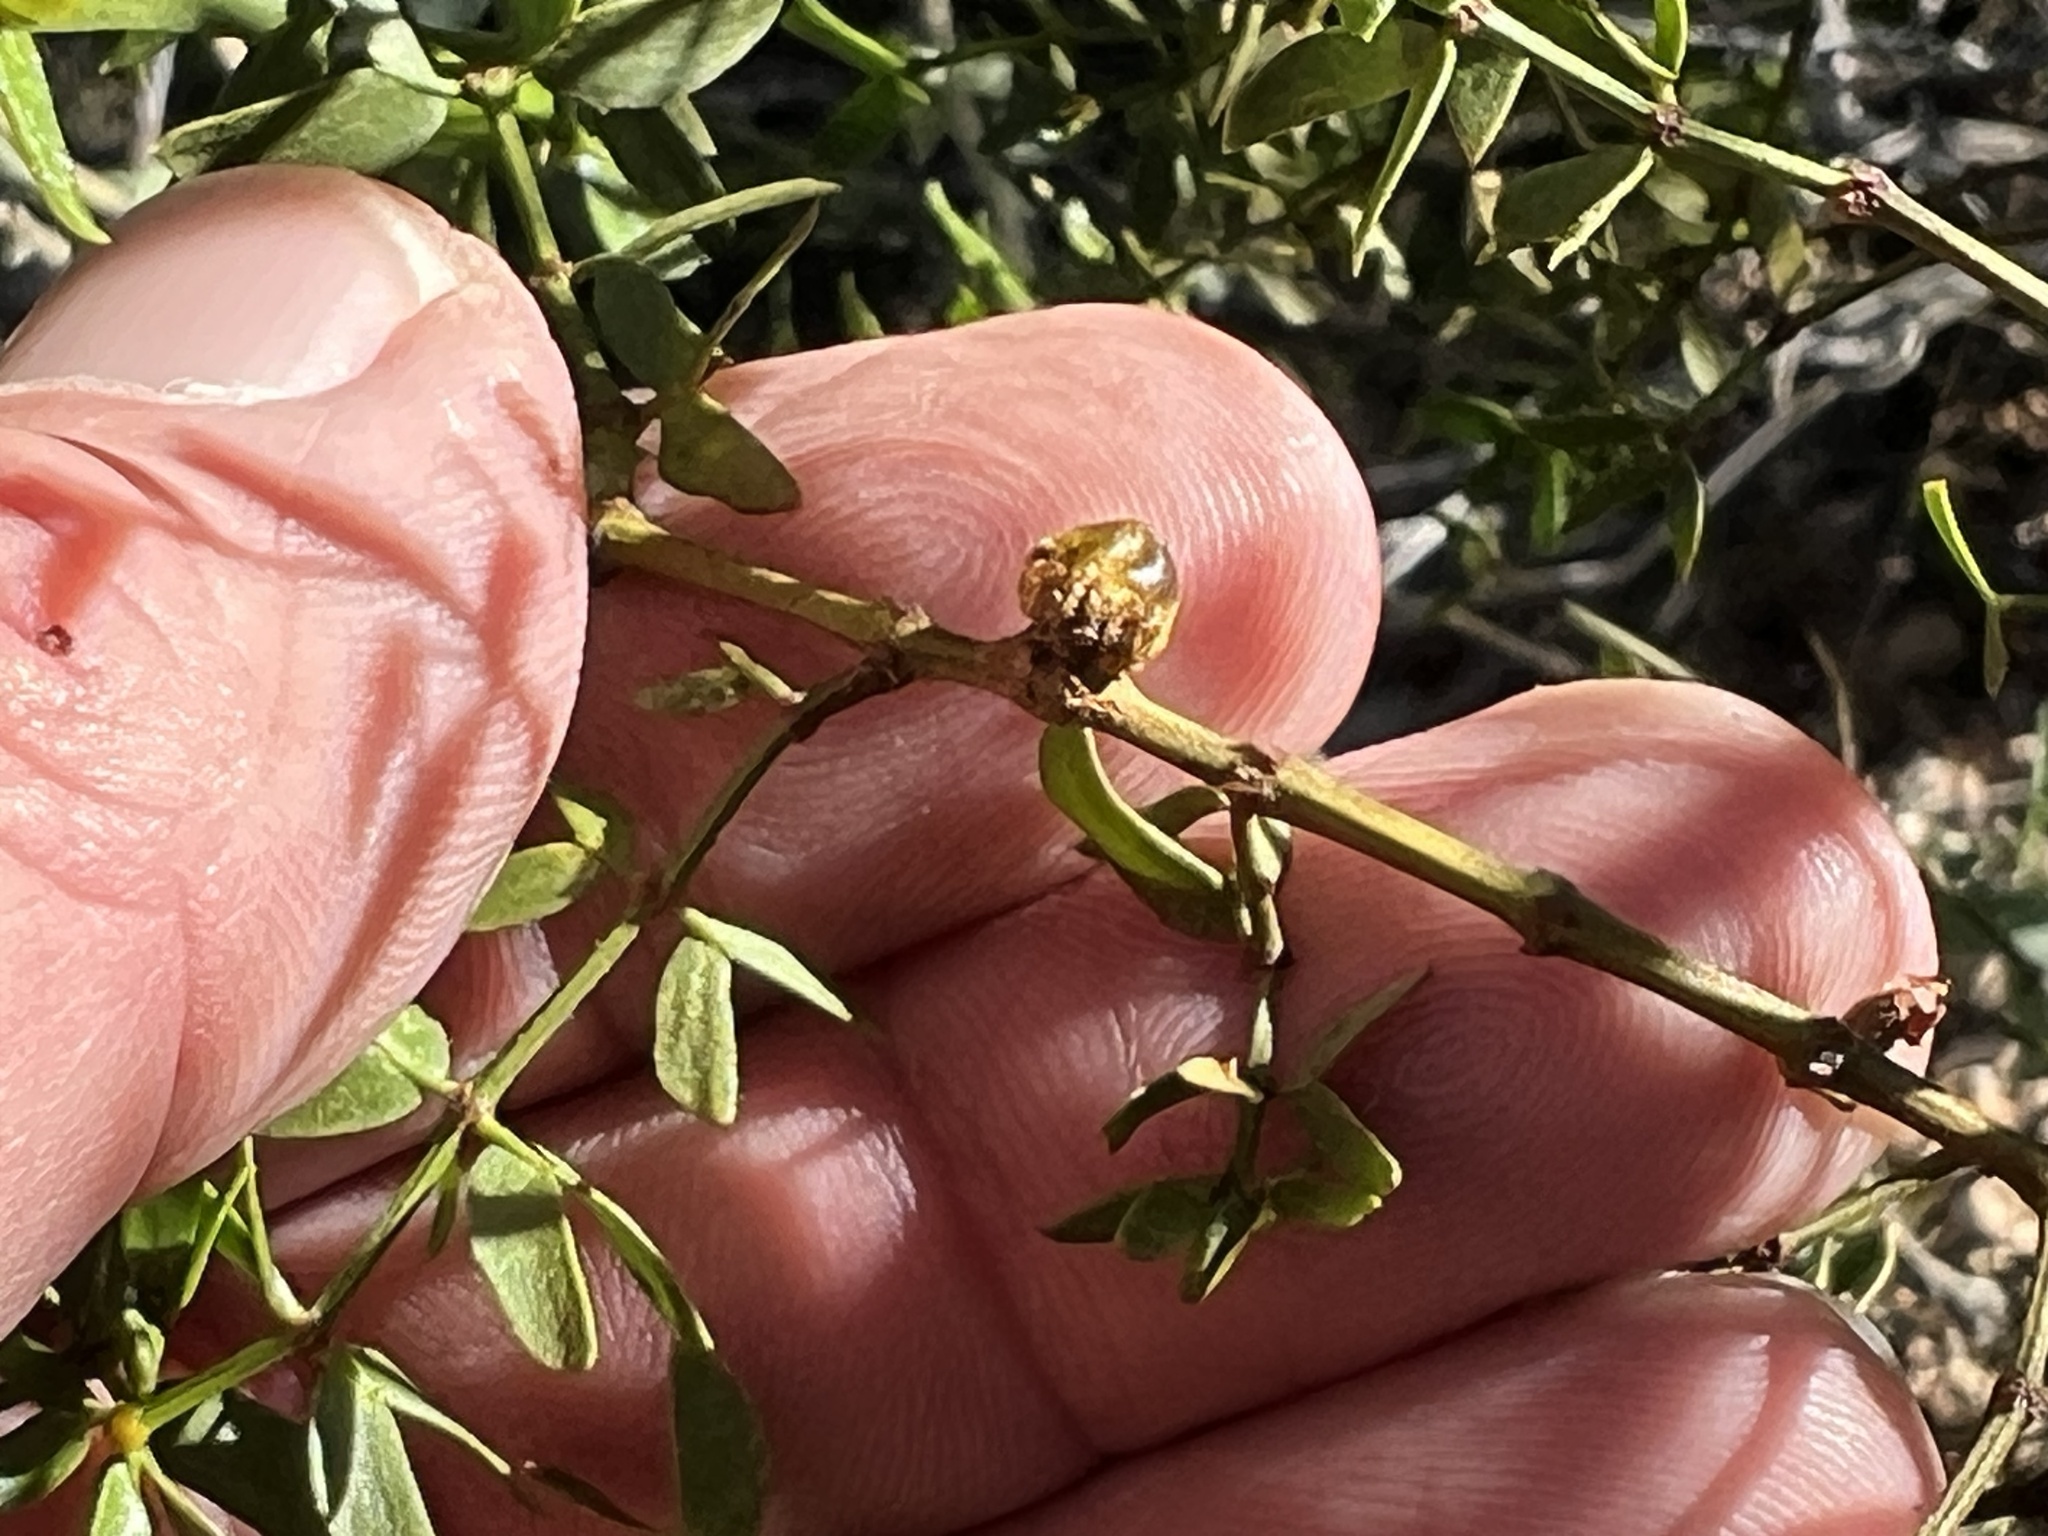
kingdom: Animalia
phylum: Arthropoda
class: Insecta
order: Diptera
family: Cecidomyiidae
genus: Asphondylia
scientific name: Asphondylia resinosa
